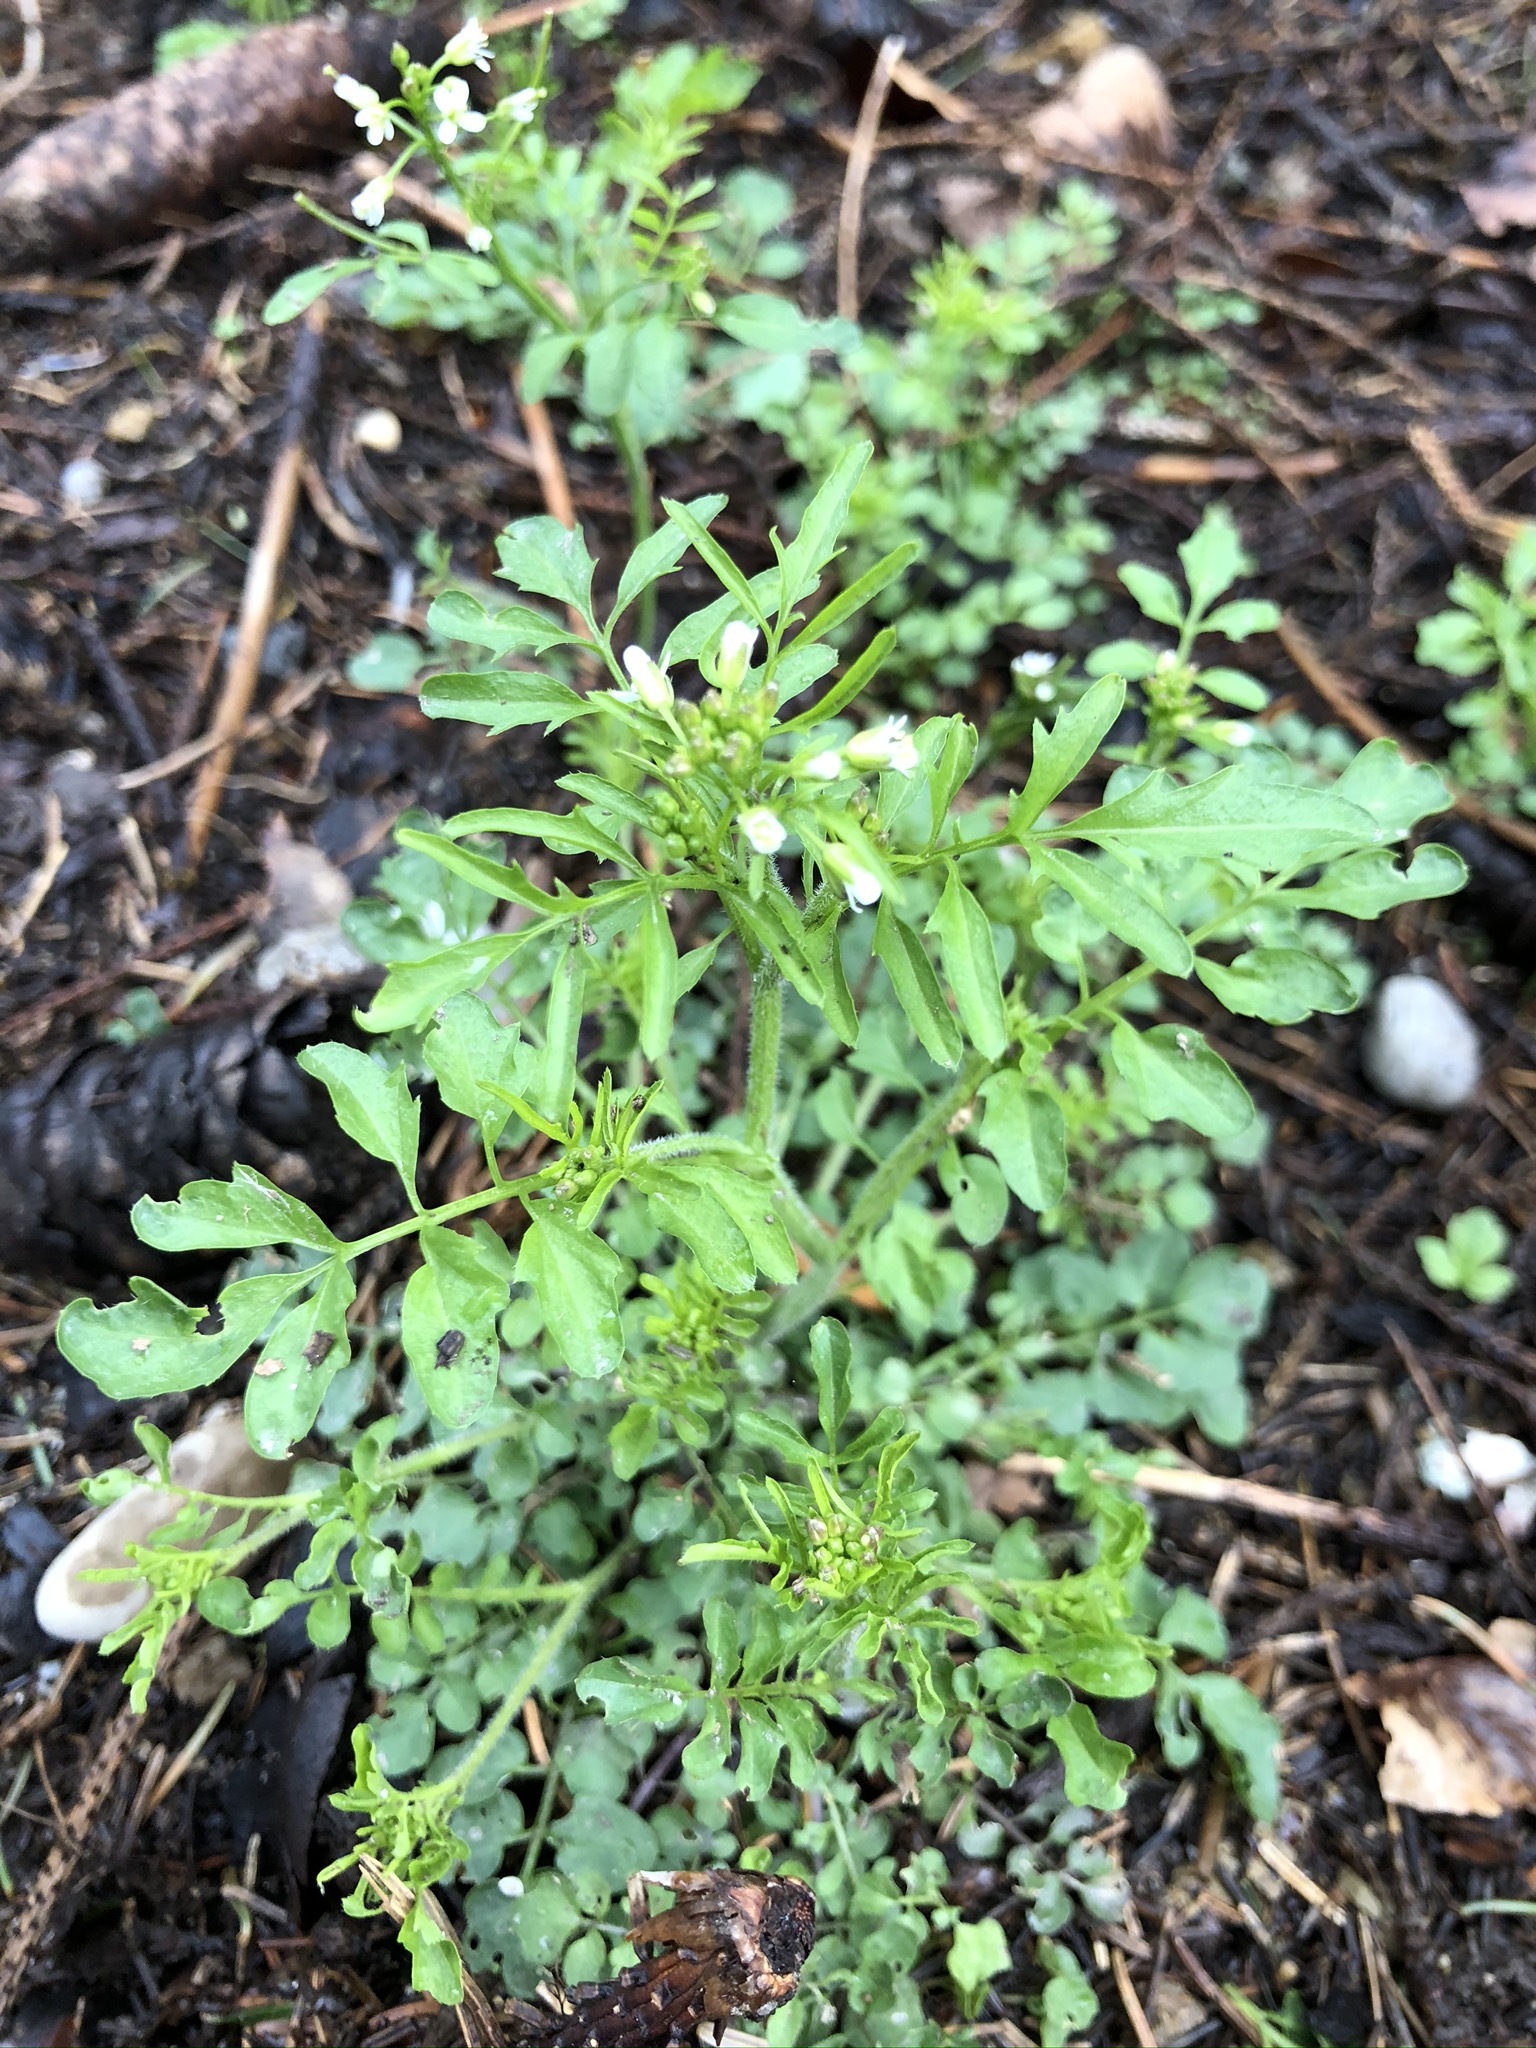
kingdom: Plantae
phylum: Tracheophyta
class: Magnoliopsida
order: Brassicales
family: Brassicaceae
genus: Cardamine
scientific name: Cardamine flexuosa
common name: Woodland bittercress
